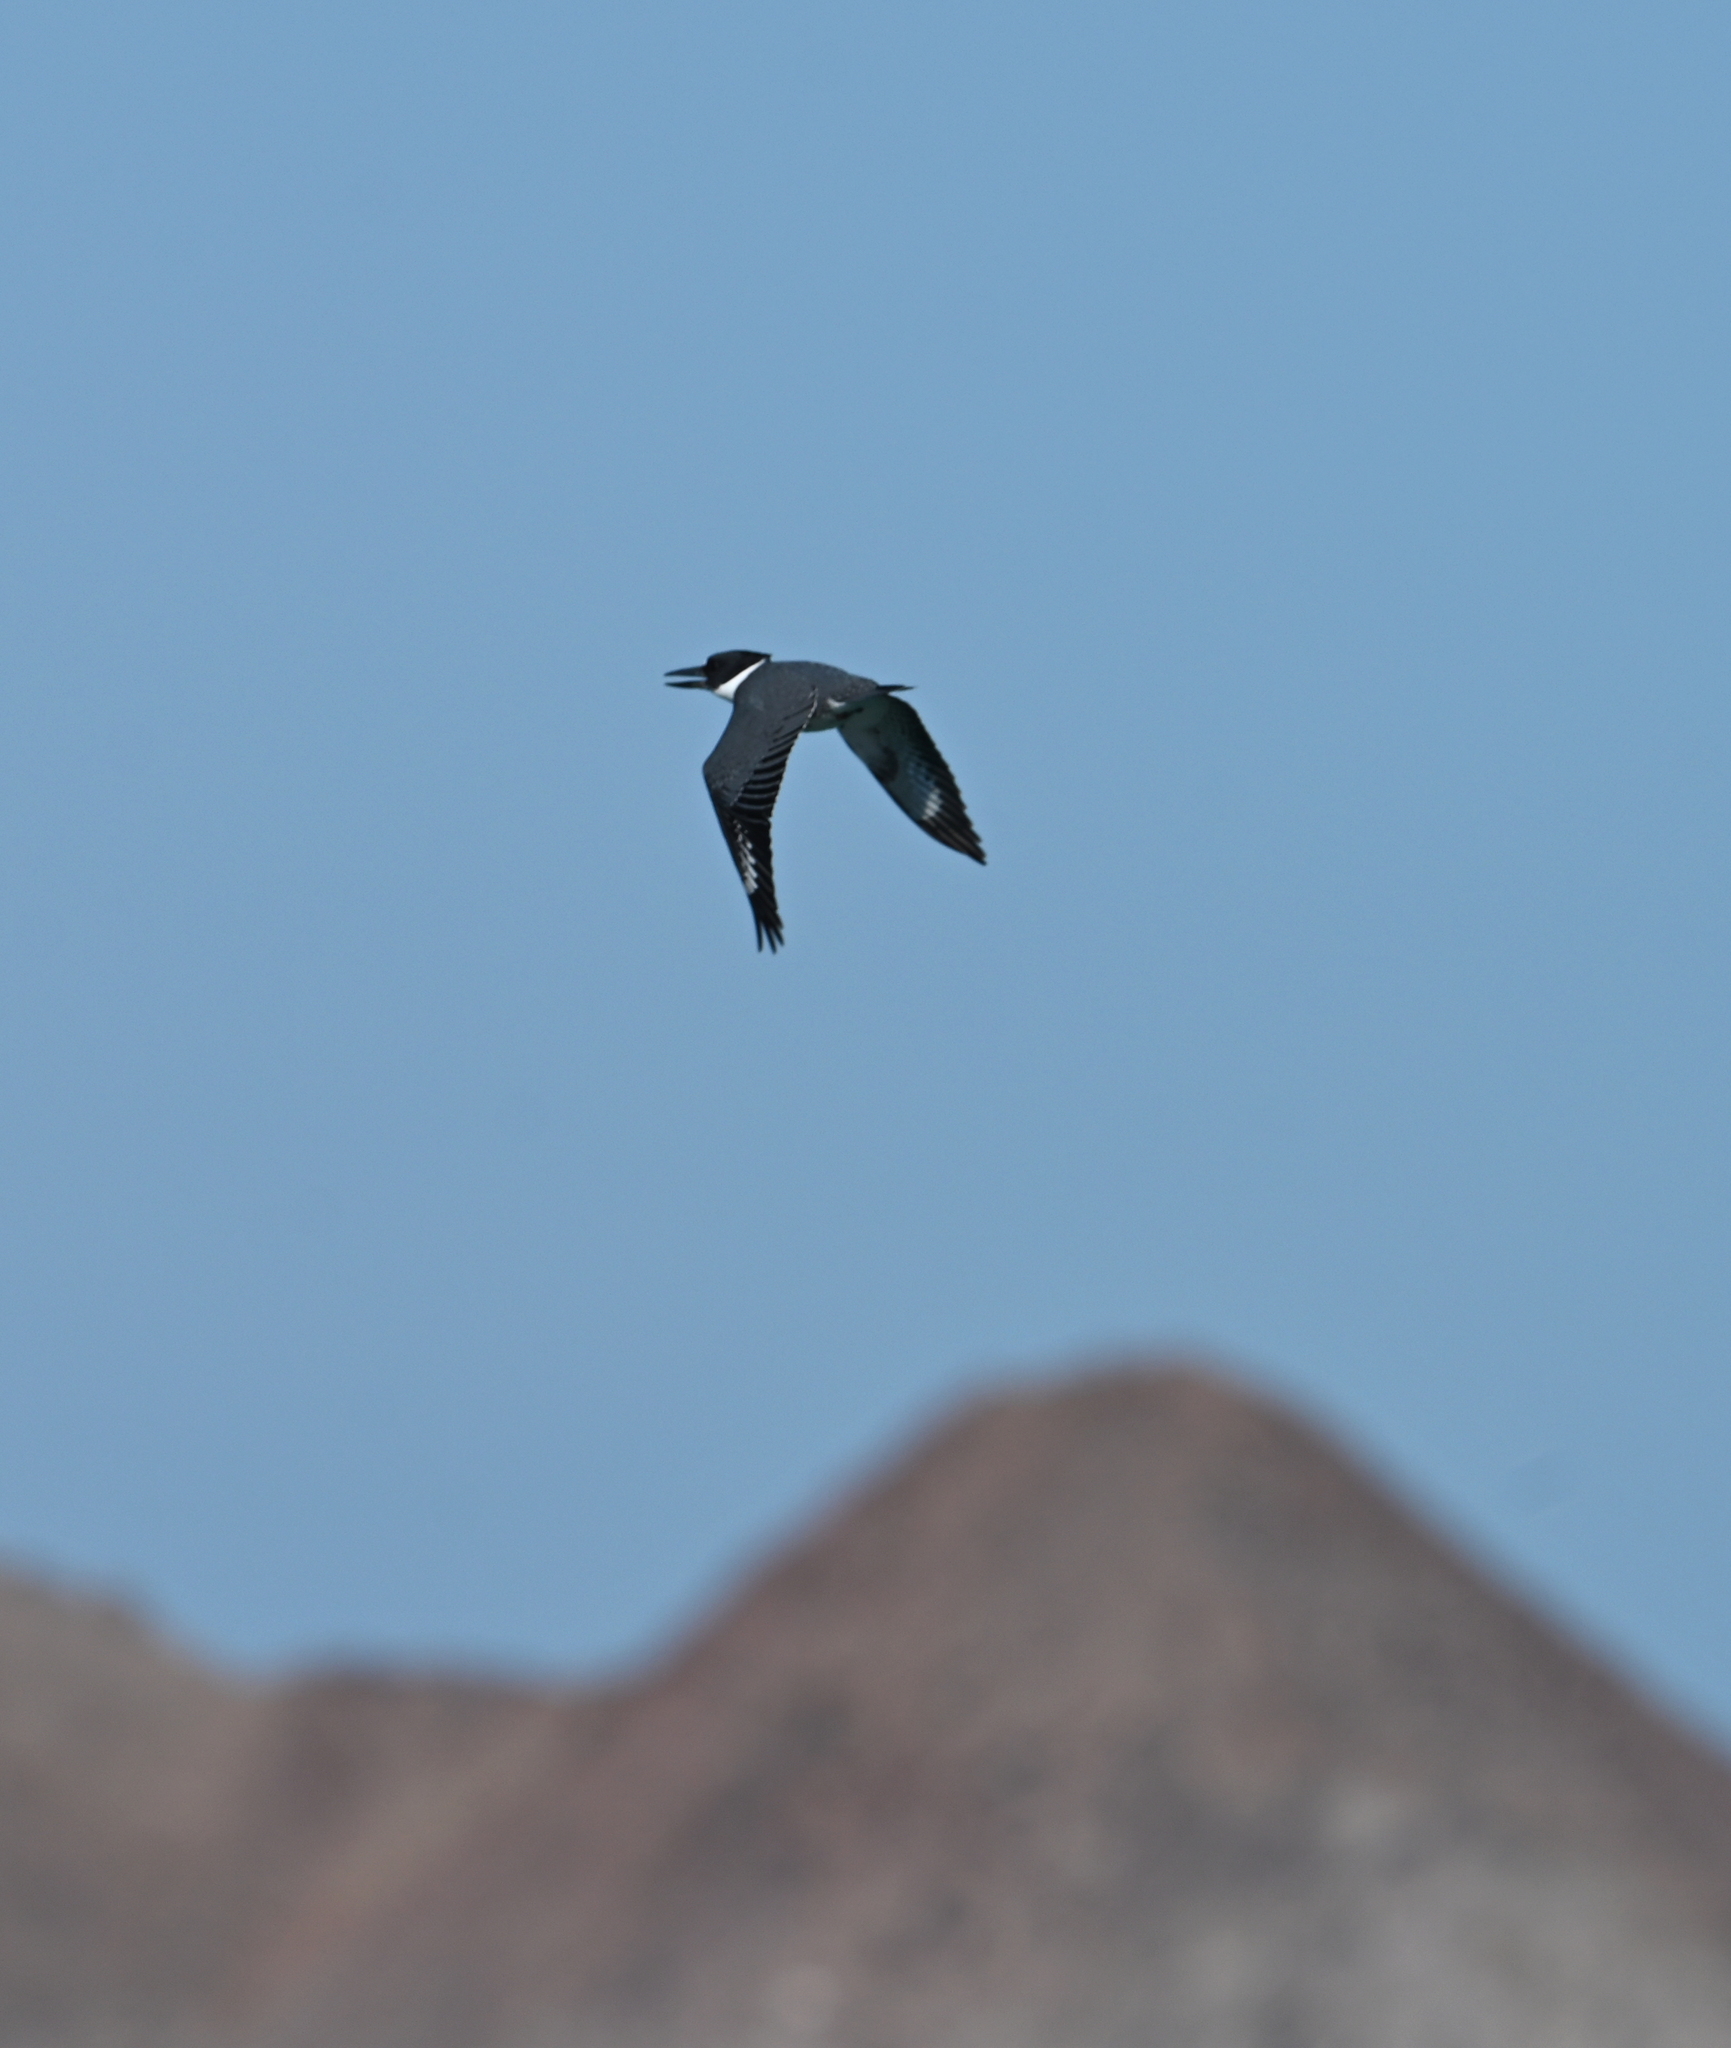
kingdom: Animalia
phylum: Chordata
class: Aves
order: Coraciiformes
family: Alcedinidae
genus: Megaceryle
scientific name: Megaceryle alcyon
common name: Belted kingfisher
